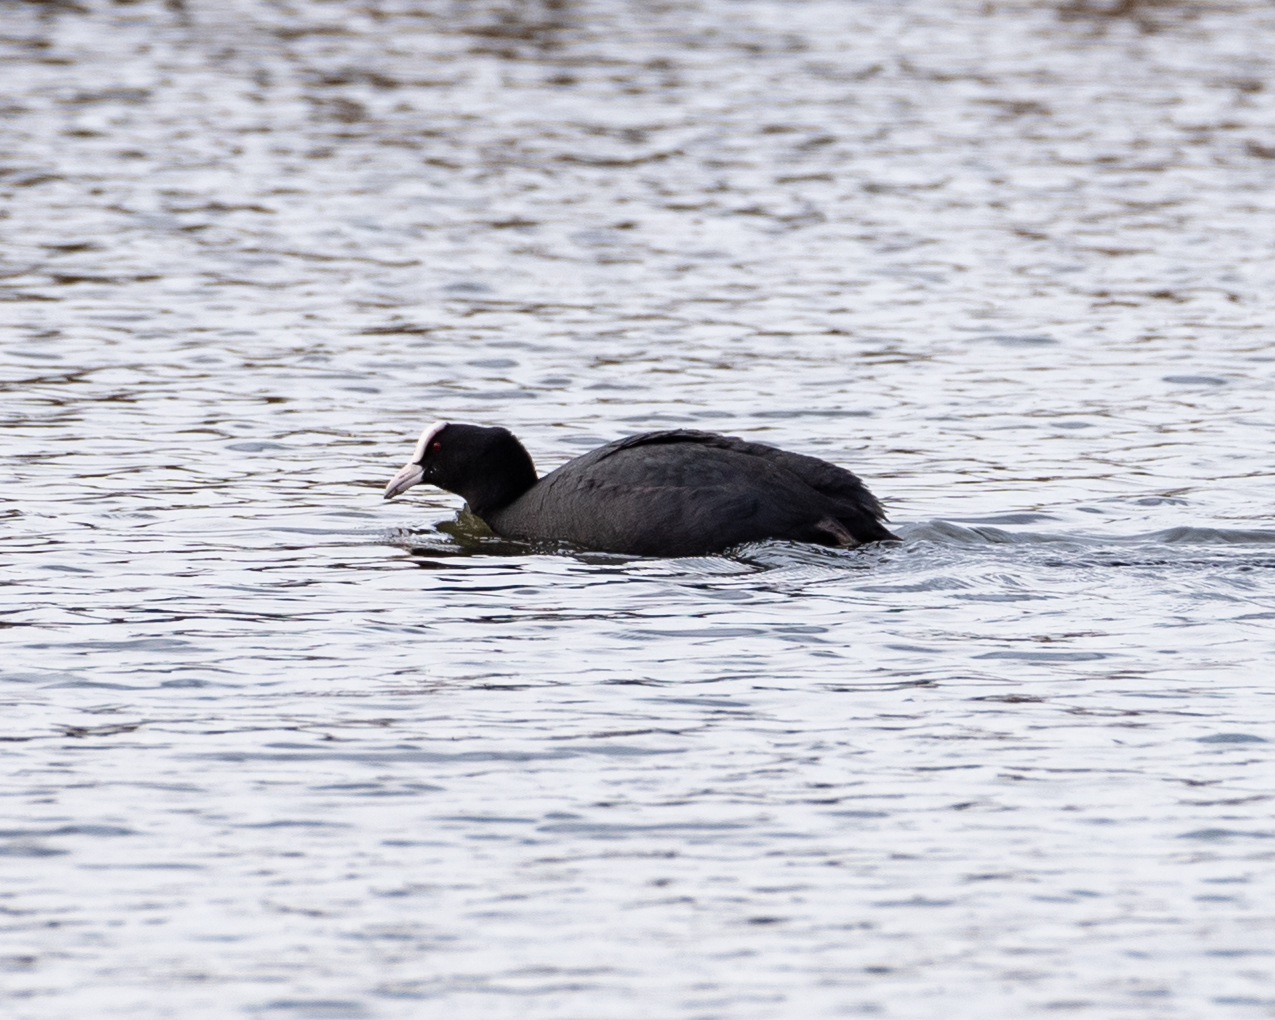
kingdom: Animalia
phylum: Chordata
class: Aves
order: Gruiformes
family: Rallidae
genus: Fulica
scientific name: Fulica atra
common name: Eurasian coot
